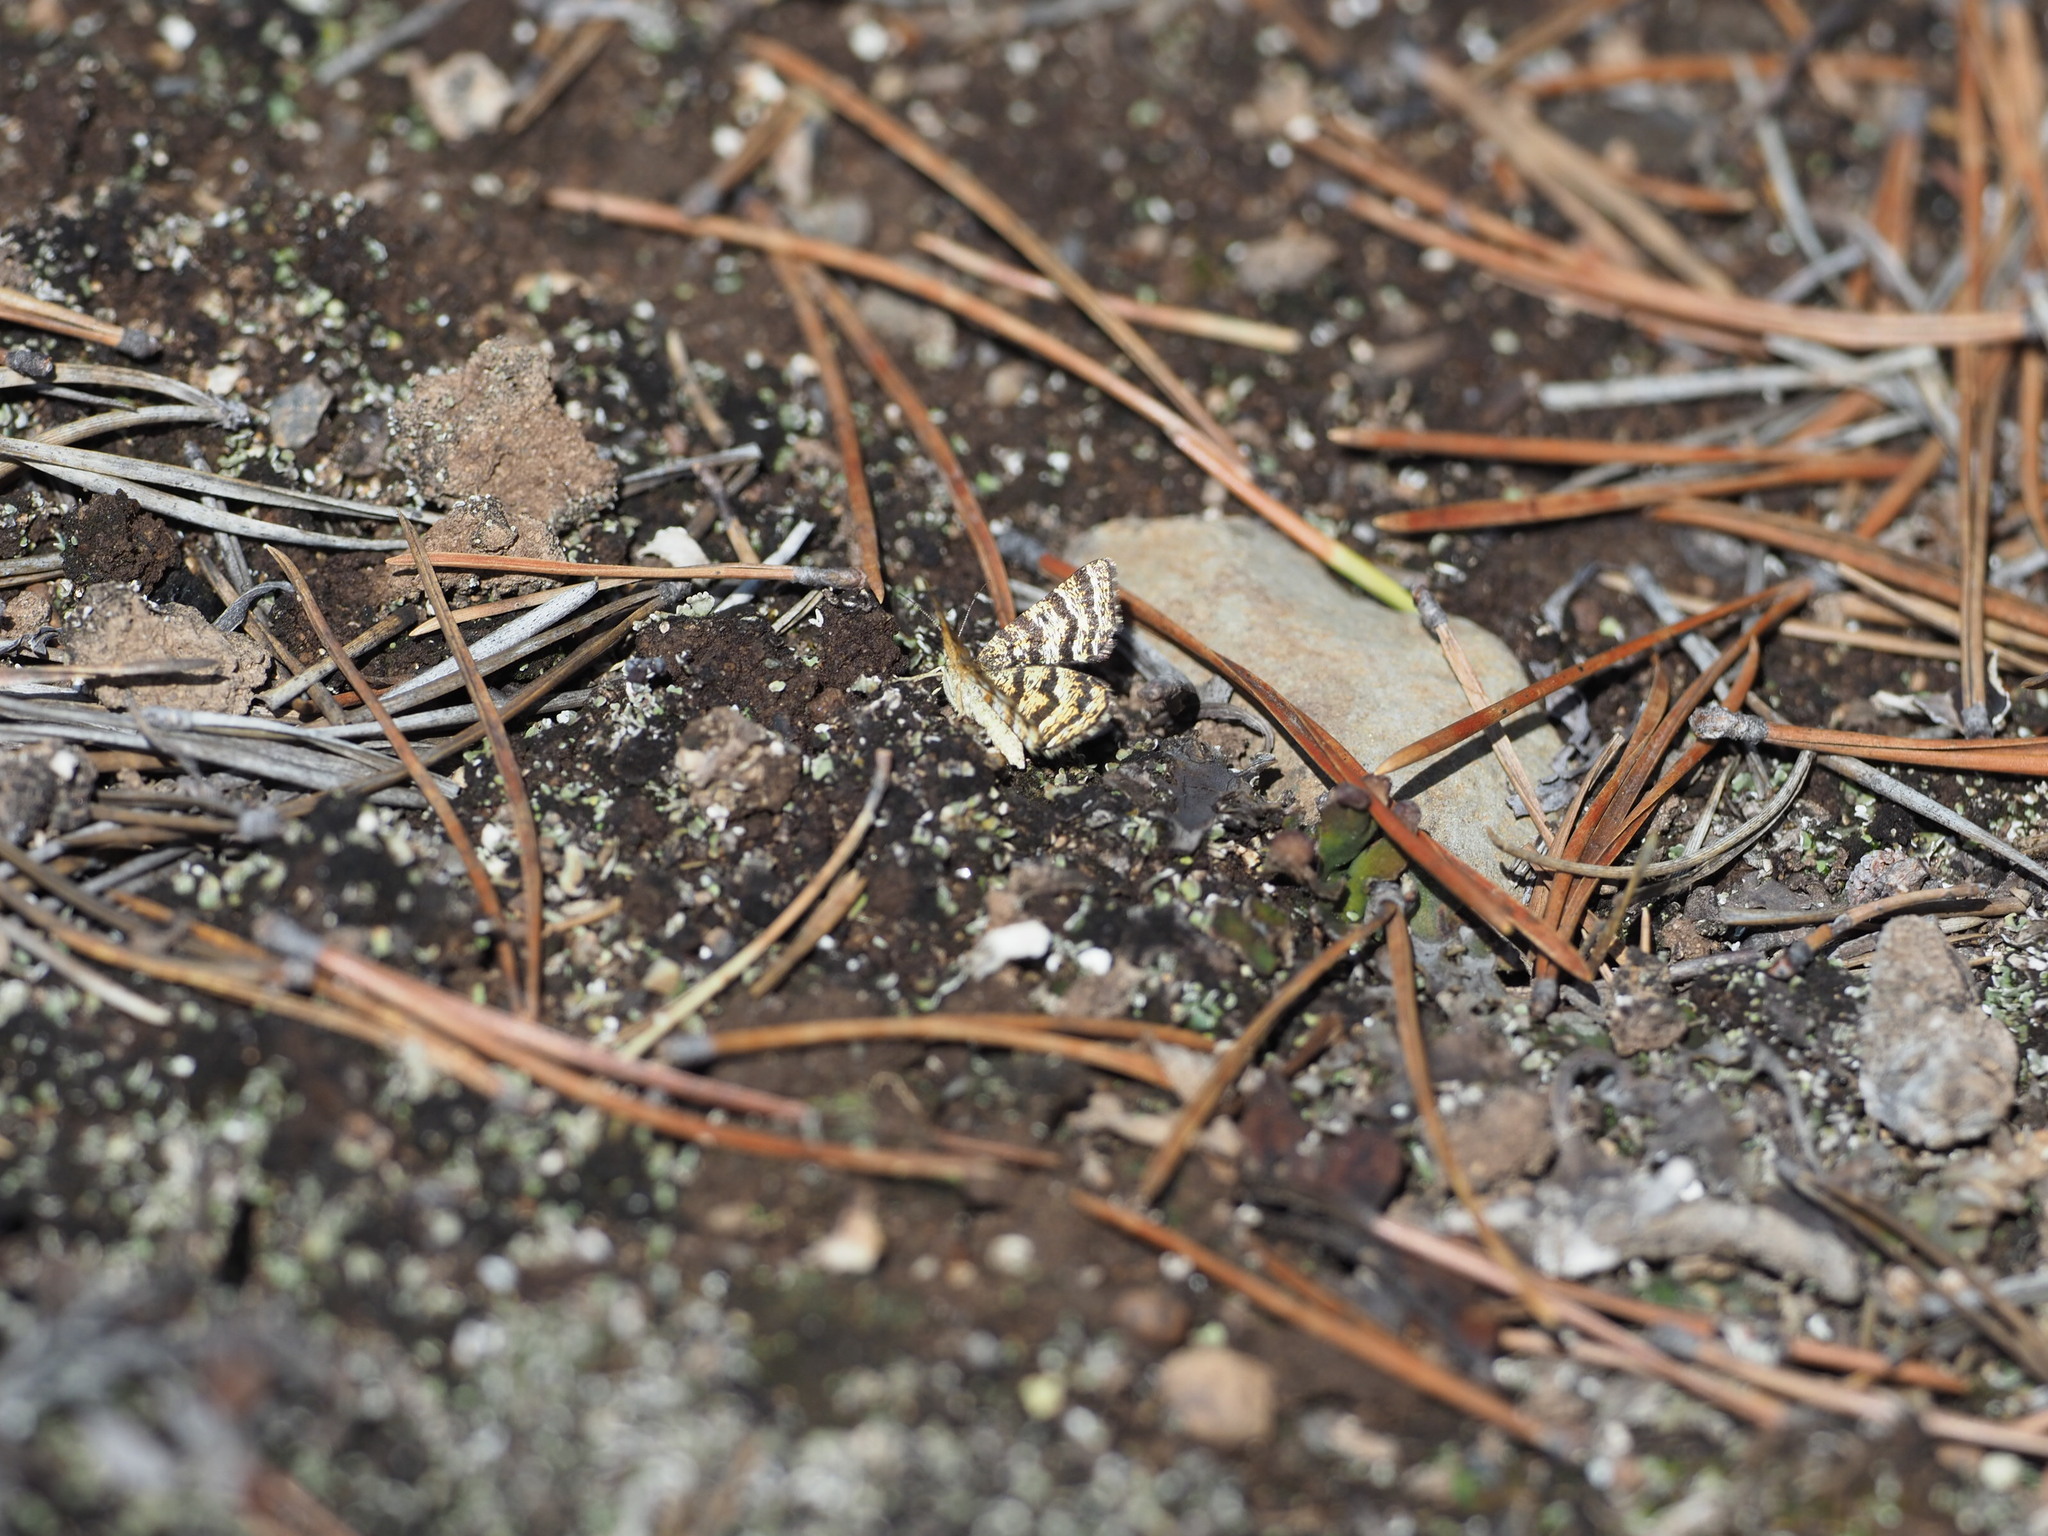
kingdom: Animalia
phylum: Arthropoda
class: Insecta
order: Lepidoptera
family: Geometridae
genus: Macaria
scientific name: Macaria truncataria
